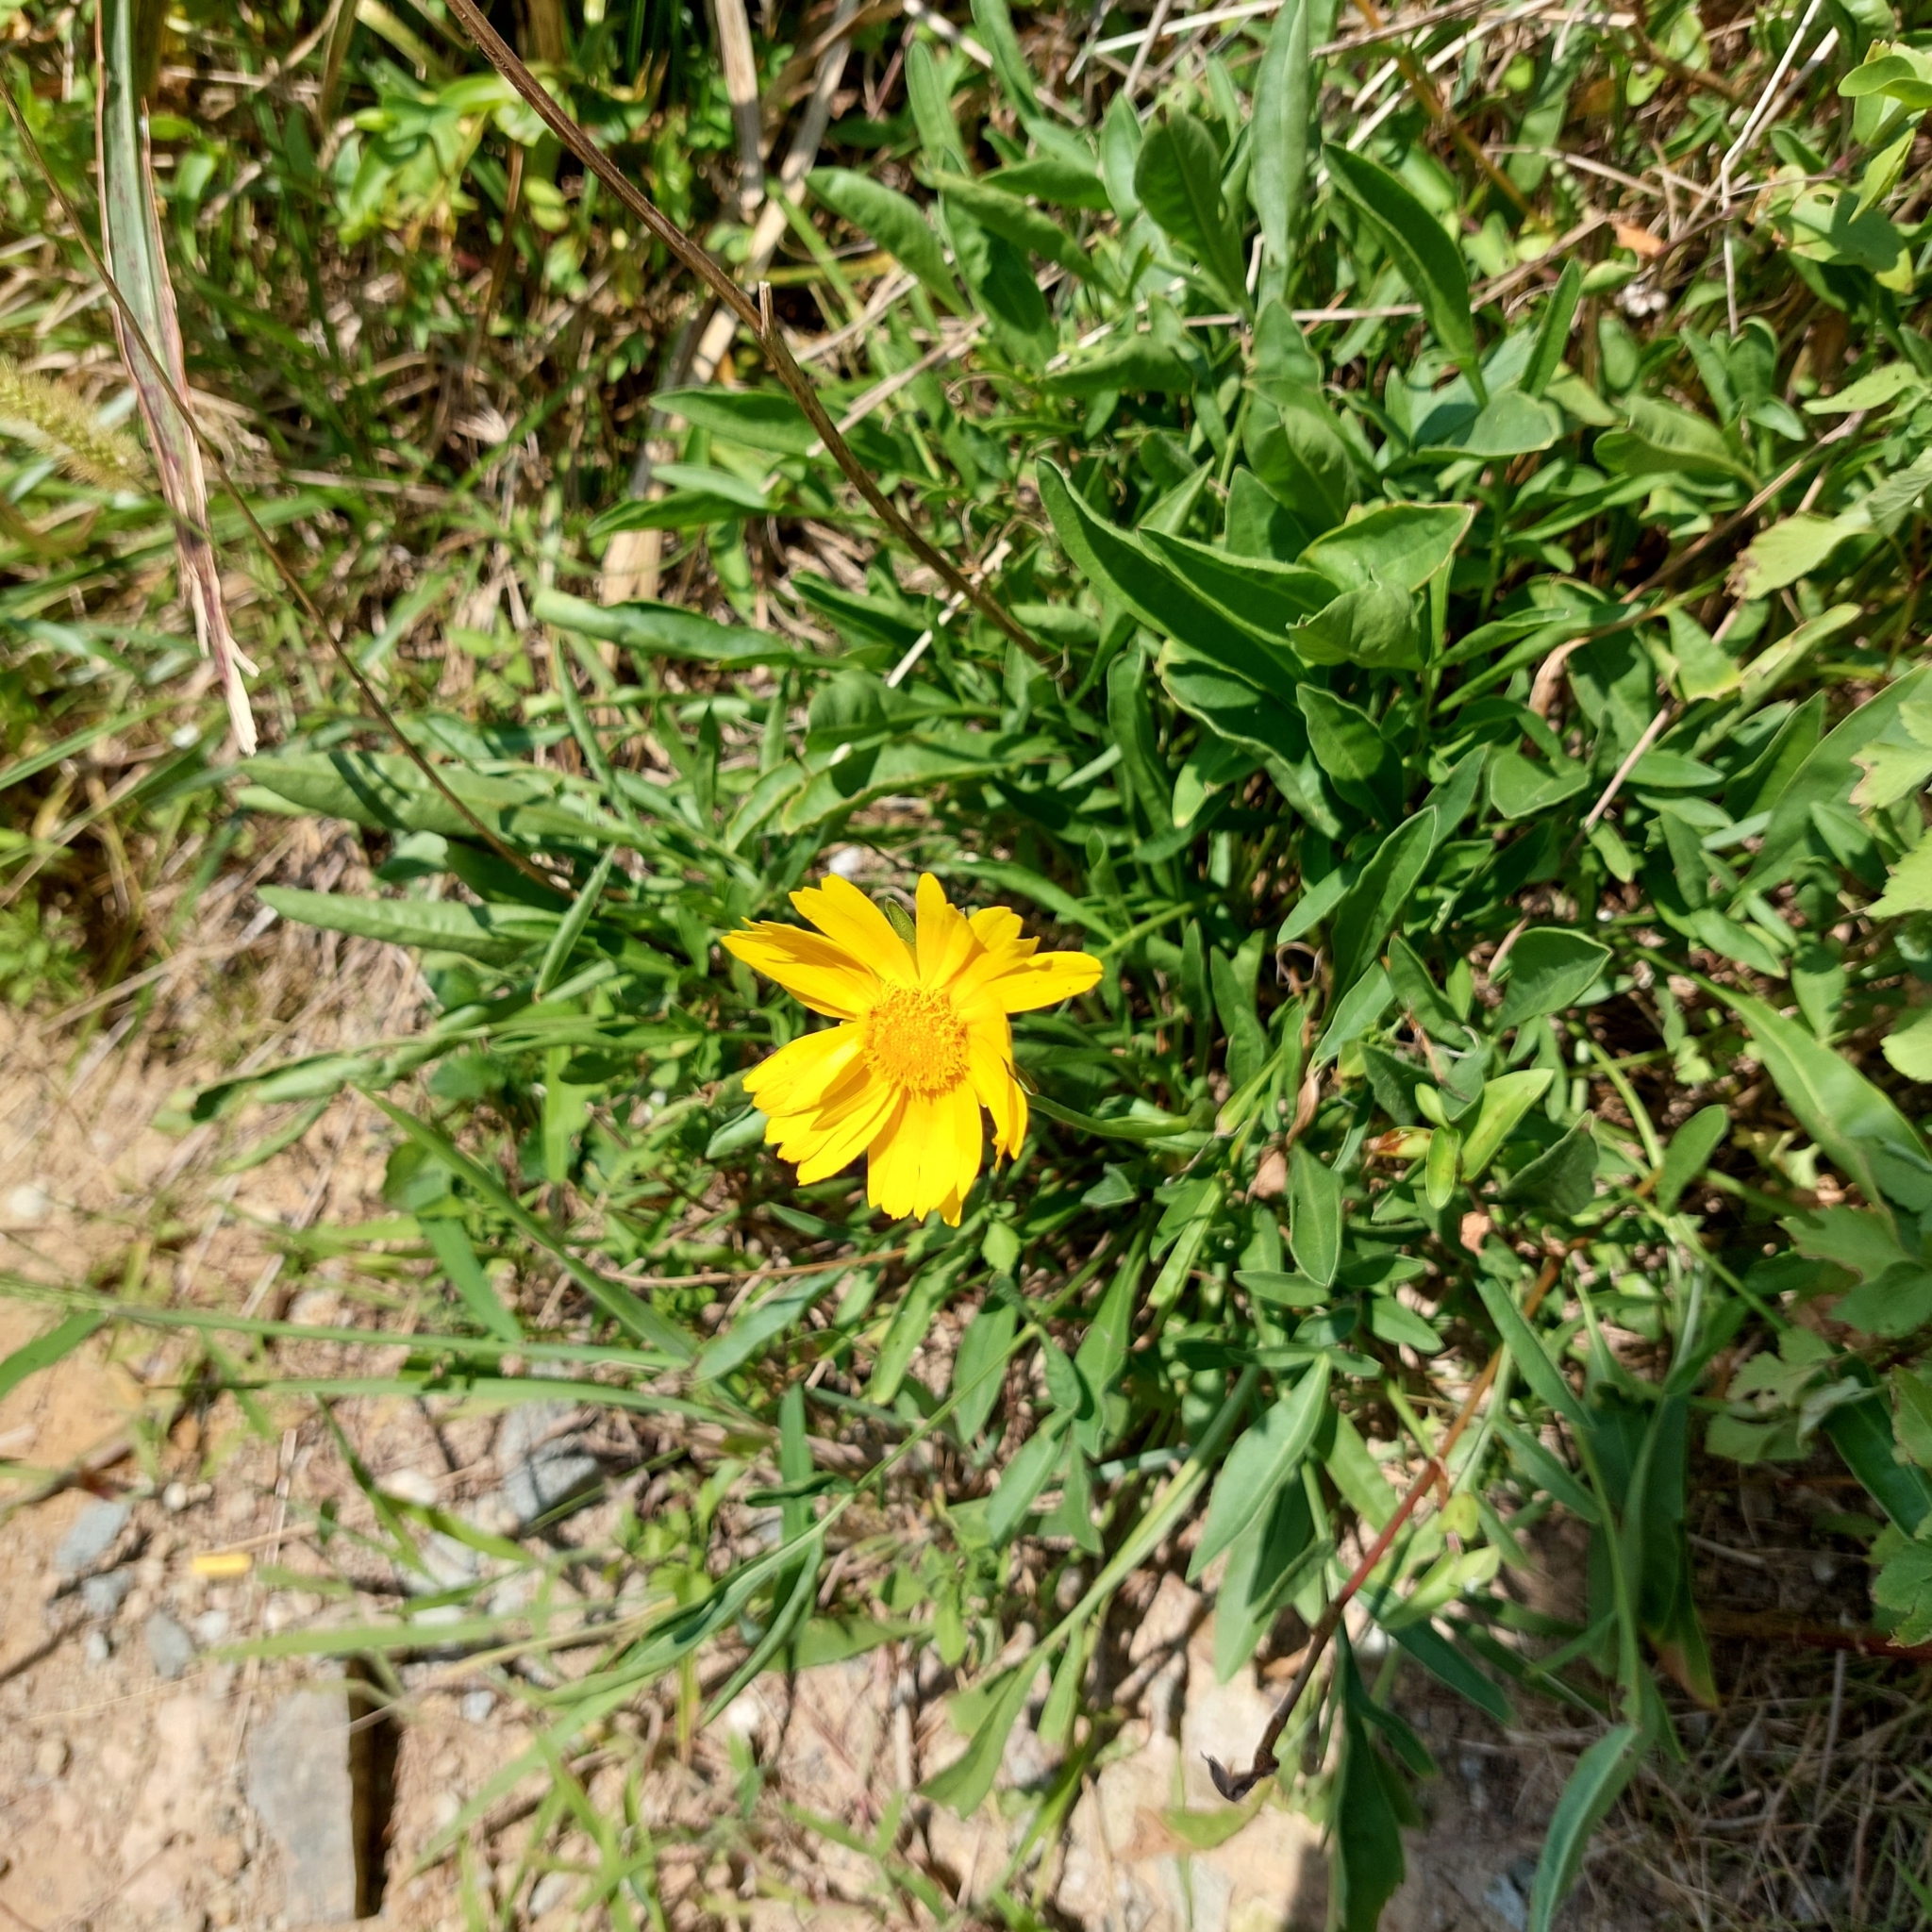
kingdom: Plantae
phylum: Tracheophyta
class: Magnoliopsida
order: Asterales
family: Asteraceae
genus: Coreopsis
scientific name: Coreopsis lanceolata
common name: Garden coreopsis
